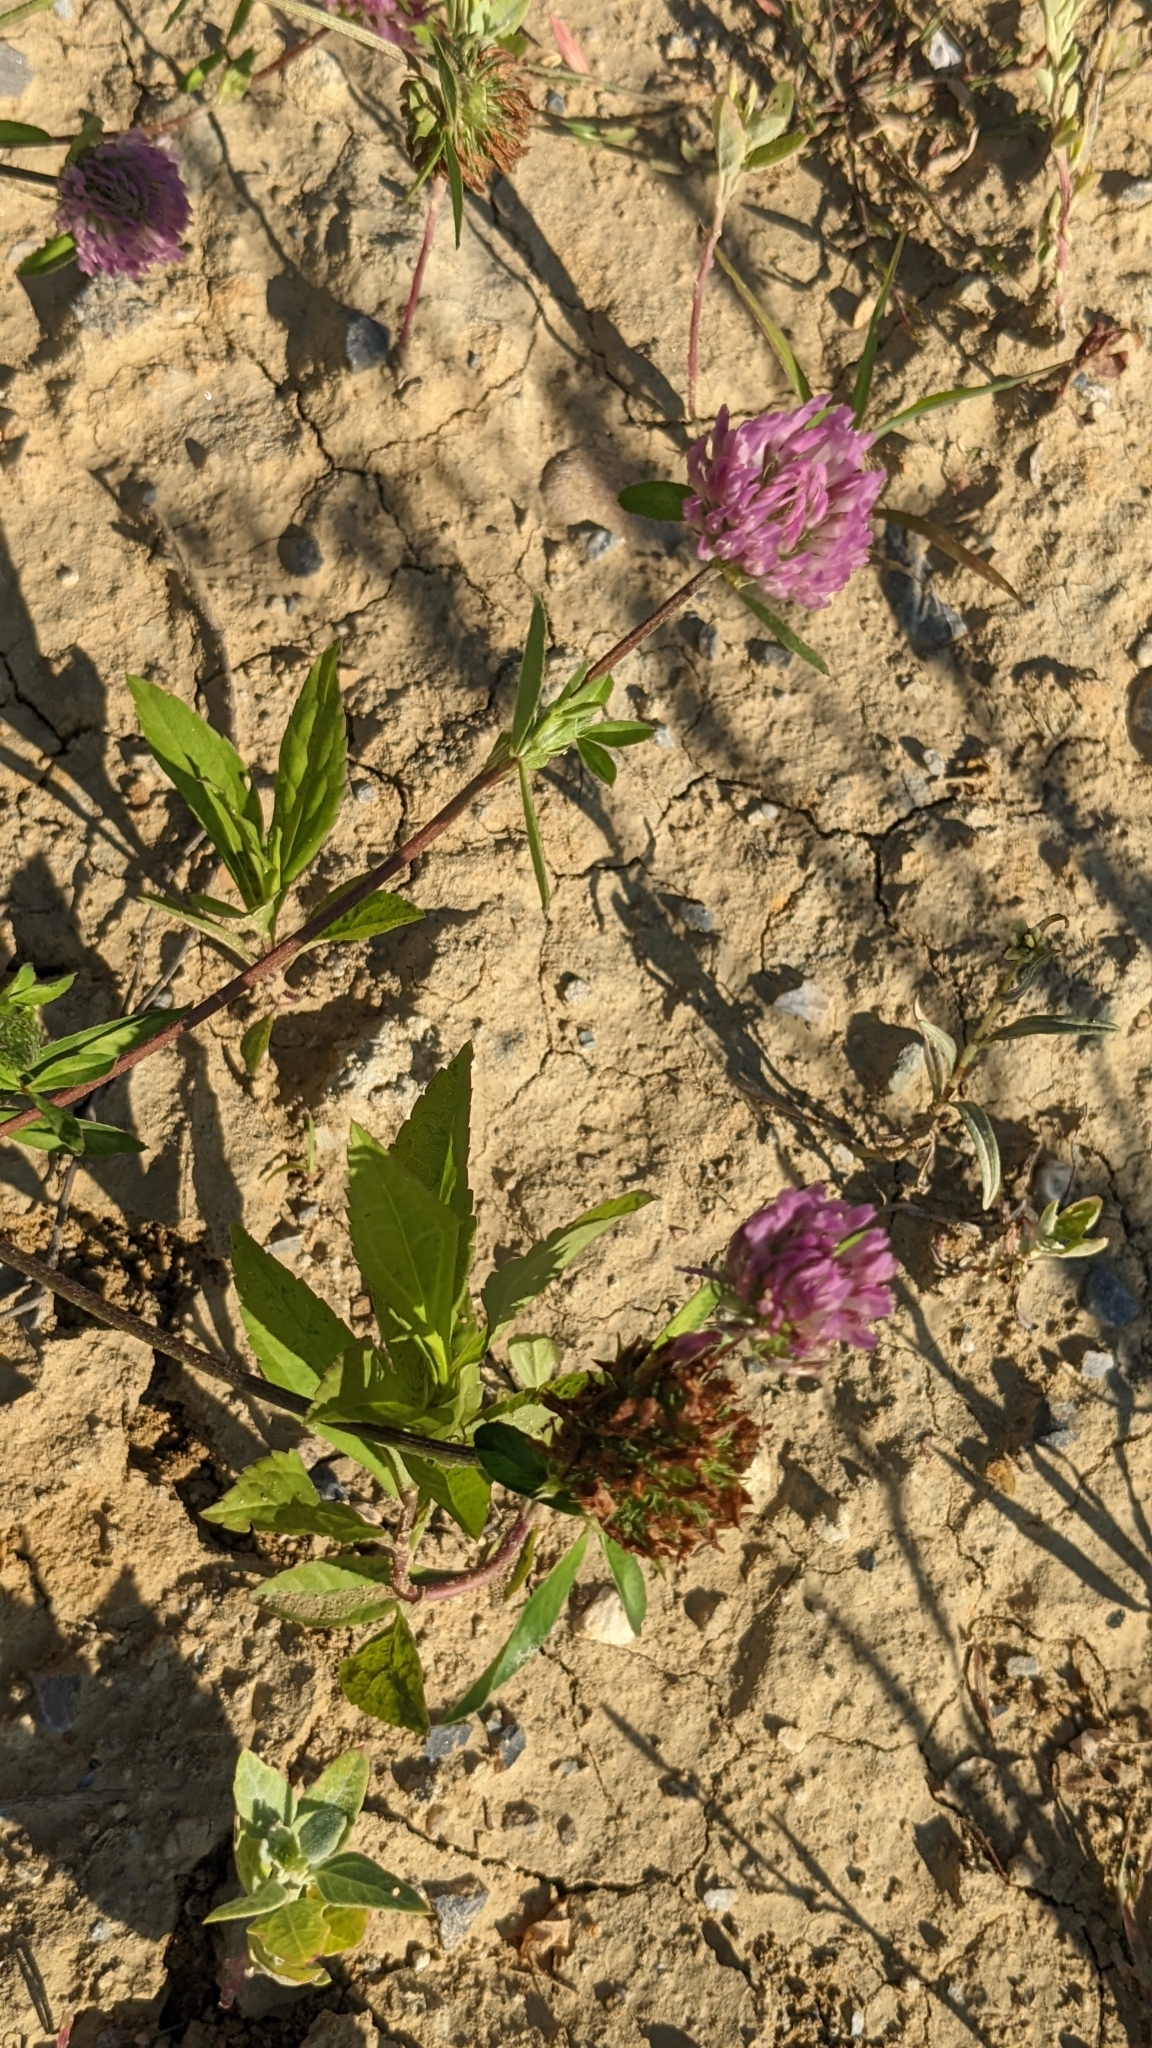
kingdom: Plantae
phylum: Tracheophyta
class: Magnoliopsida
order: Fabales
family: Fabaceae
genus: Trifolium
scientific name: Trifolium pratense
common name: Red clover
